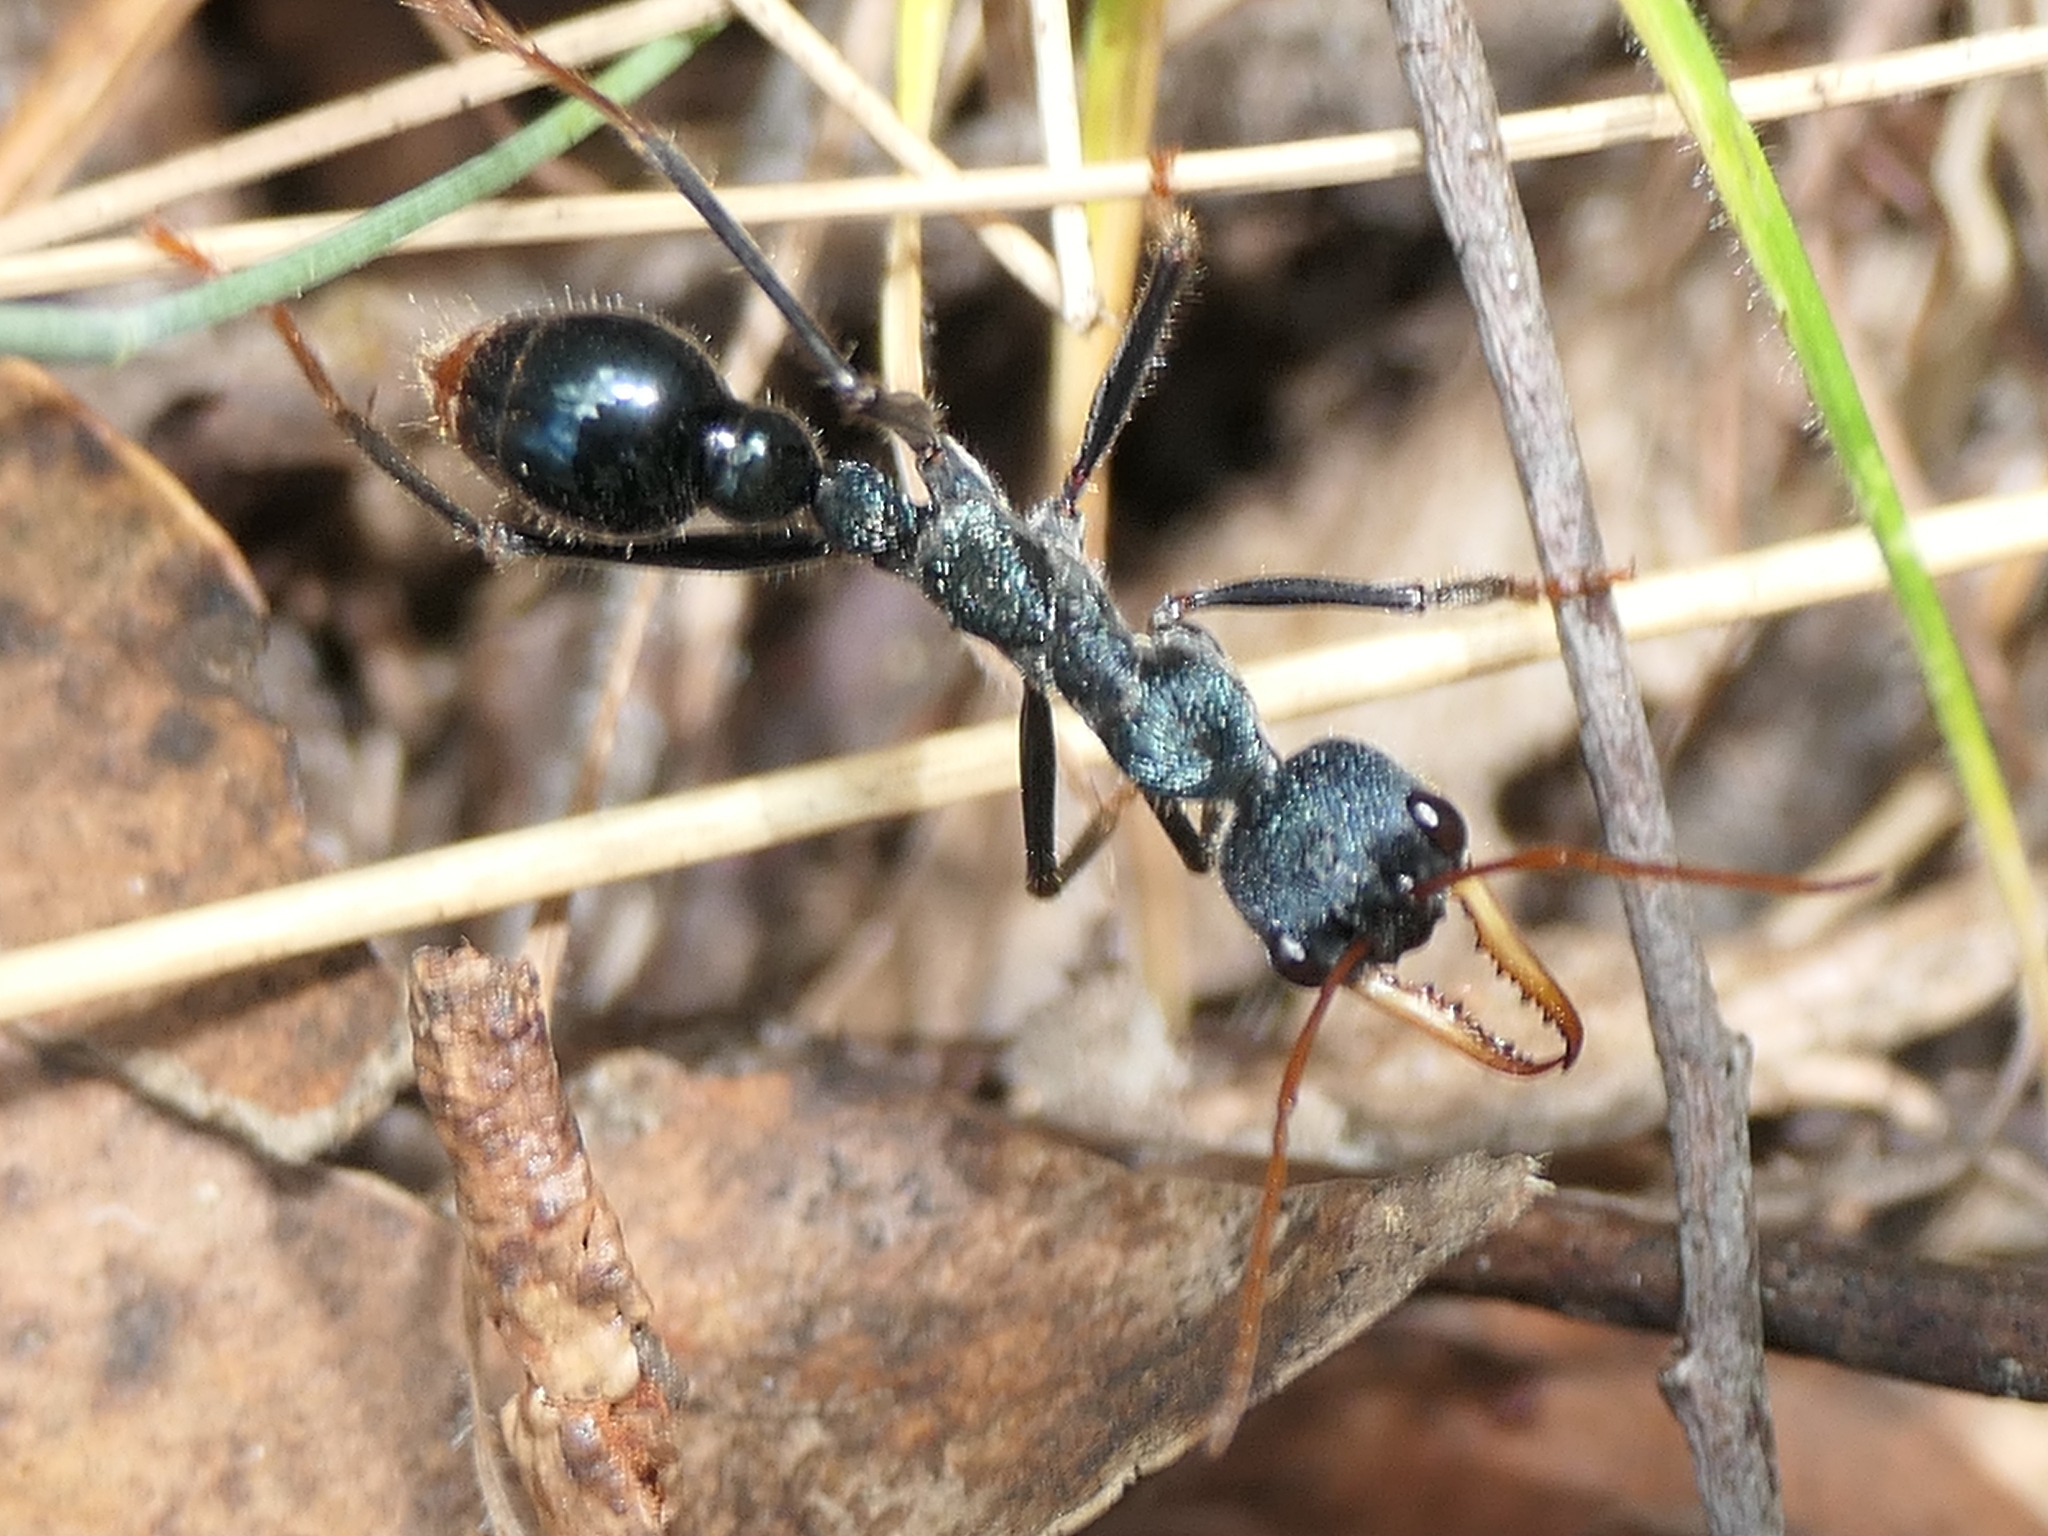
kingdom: Animalia
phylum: Arthropoda
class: Insecta
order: Hymenoptera
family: Formicidae
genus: Myrmecia
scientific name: Myrmecia tarsata
